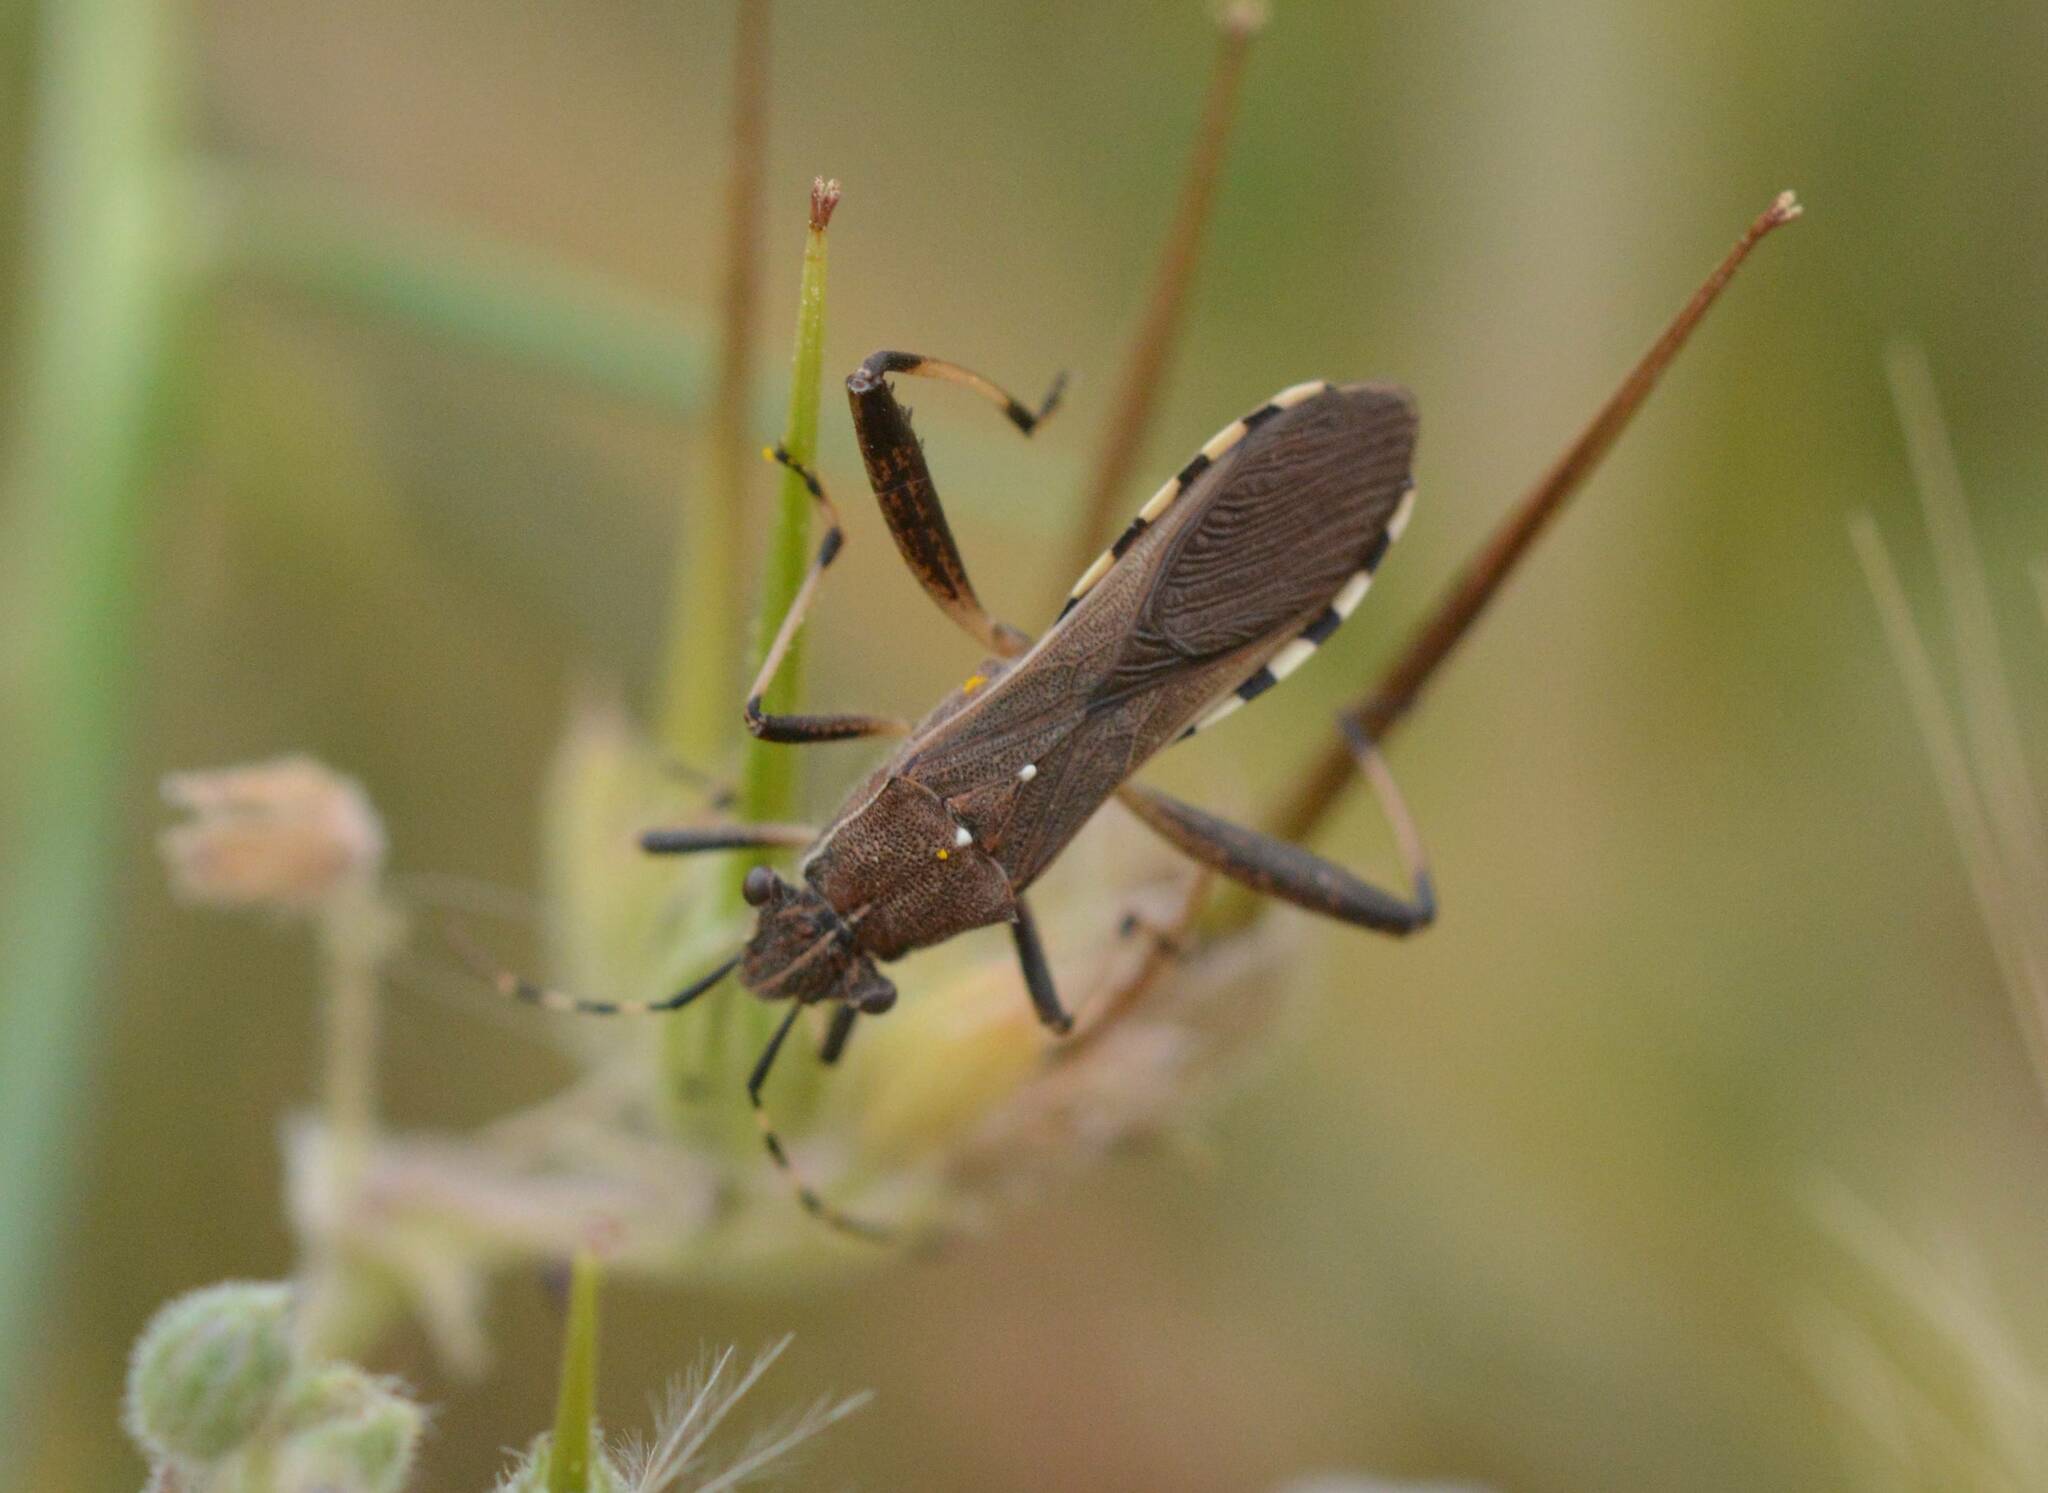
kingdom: Animalia
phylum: Arthropoda
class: Insecta
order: Hemiptera
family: Alydidae
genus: Camptopus
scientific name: Camptopus lateralis
